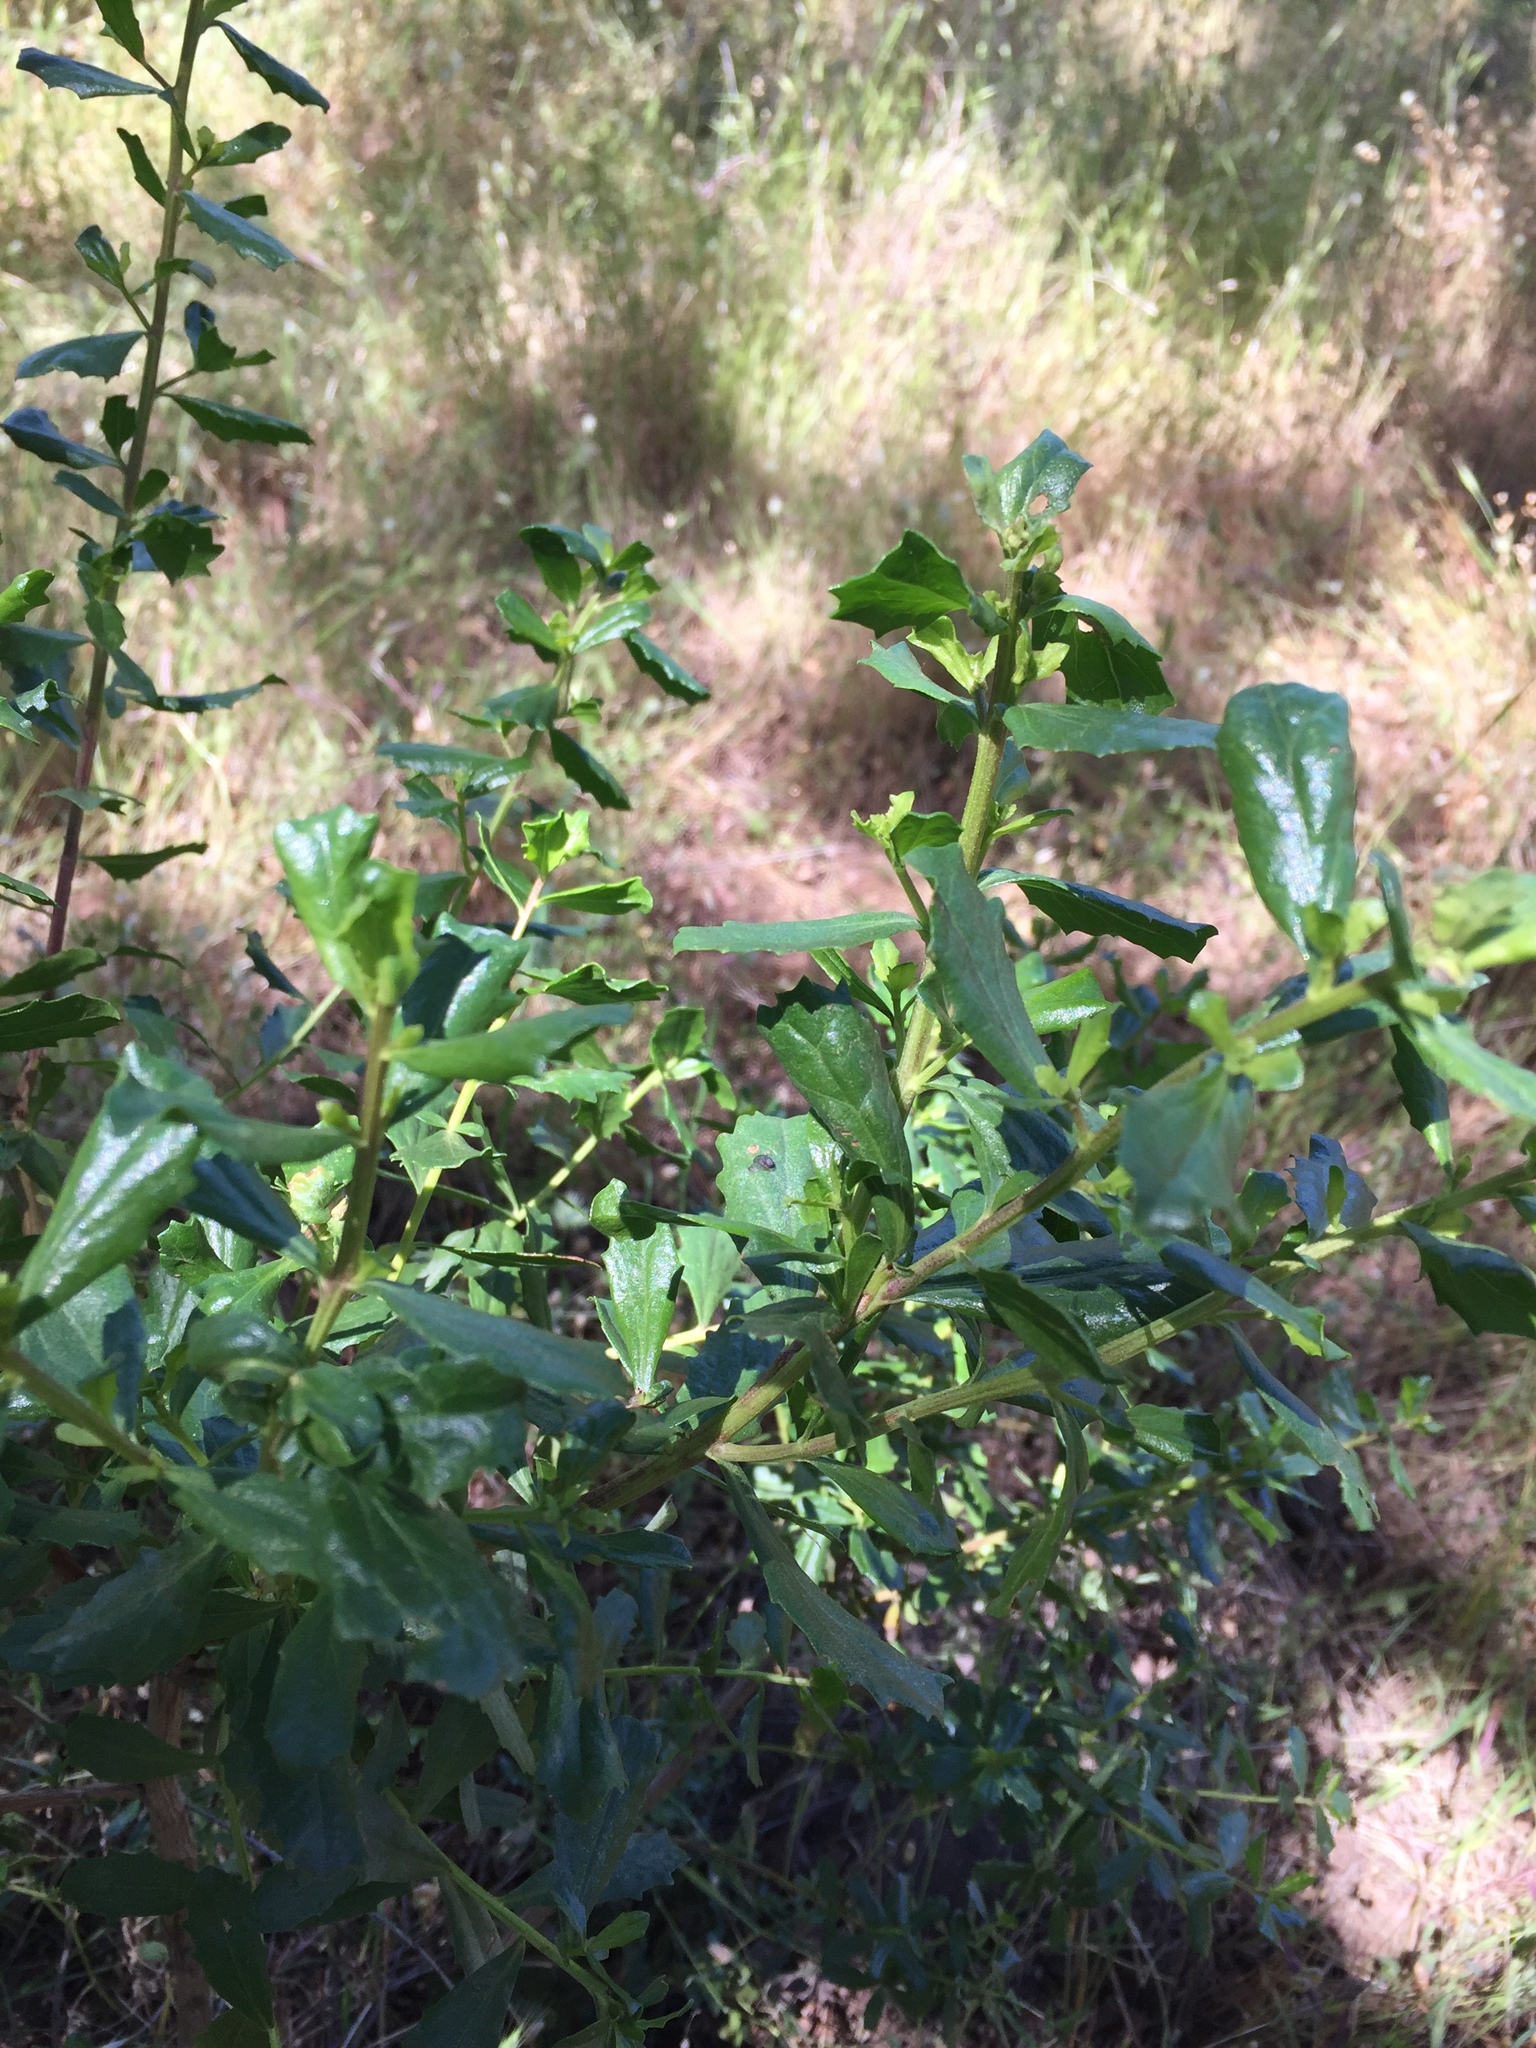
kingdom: Plantae
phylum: Tracheophyta
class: Magnoliopsida
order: Asterales
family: Asteraceae
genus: Baccharis
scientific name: Baccharis pilularis
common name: Coyotebrush
